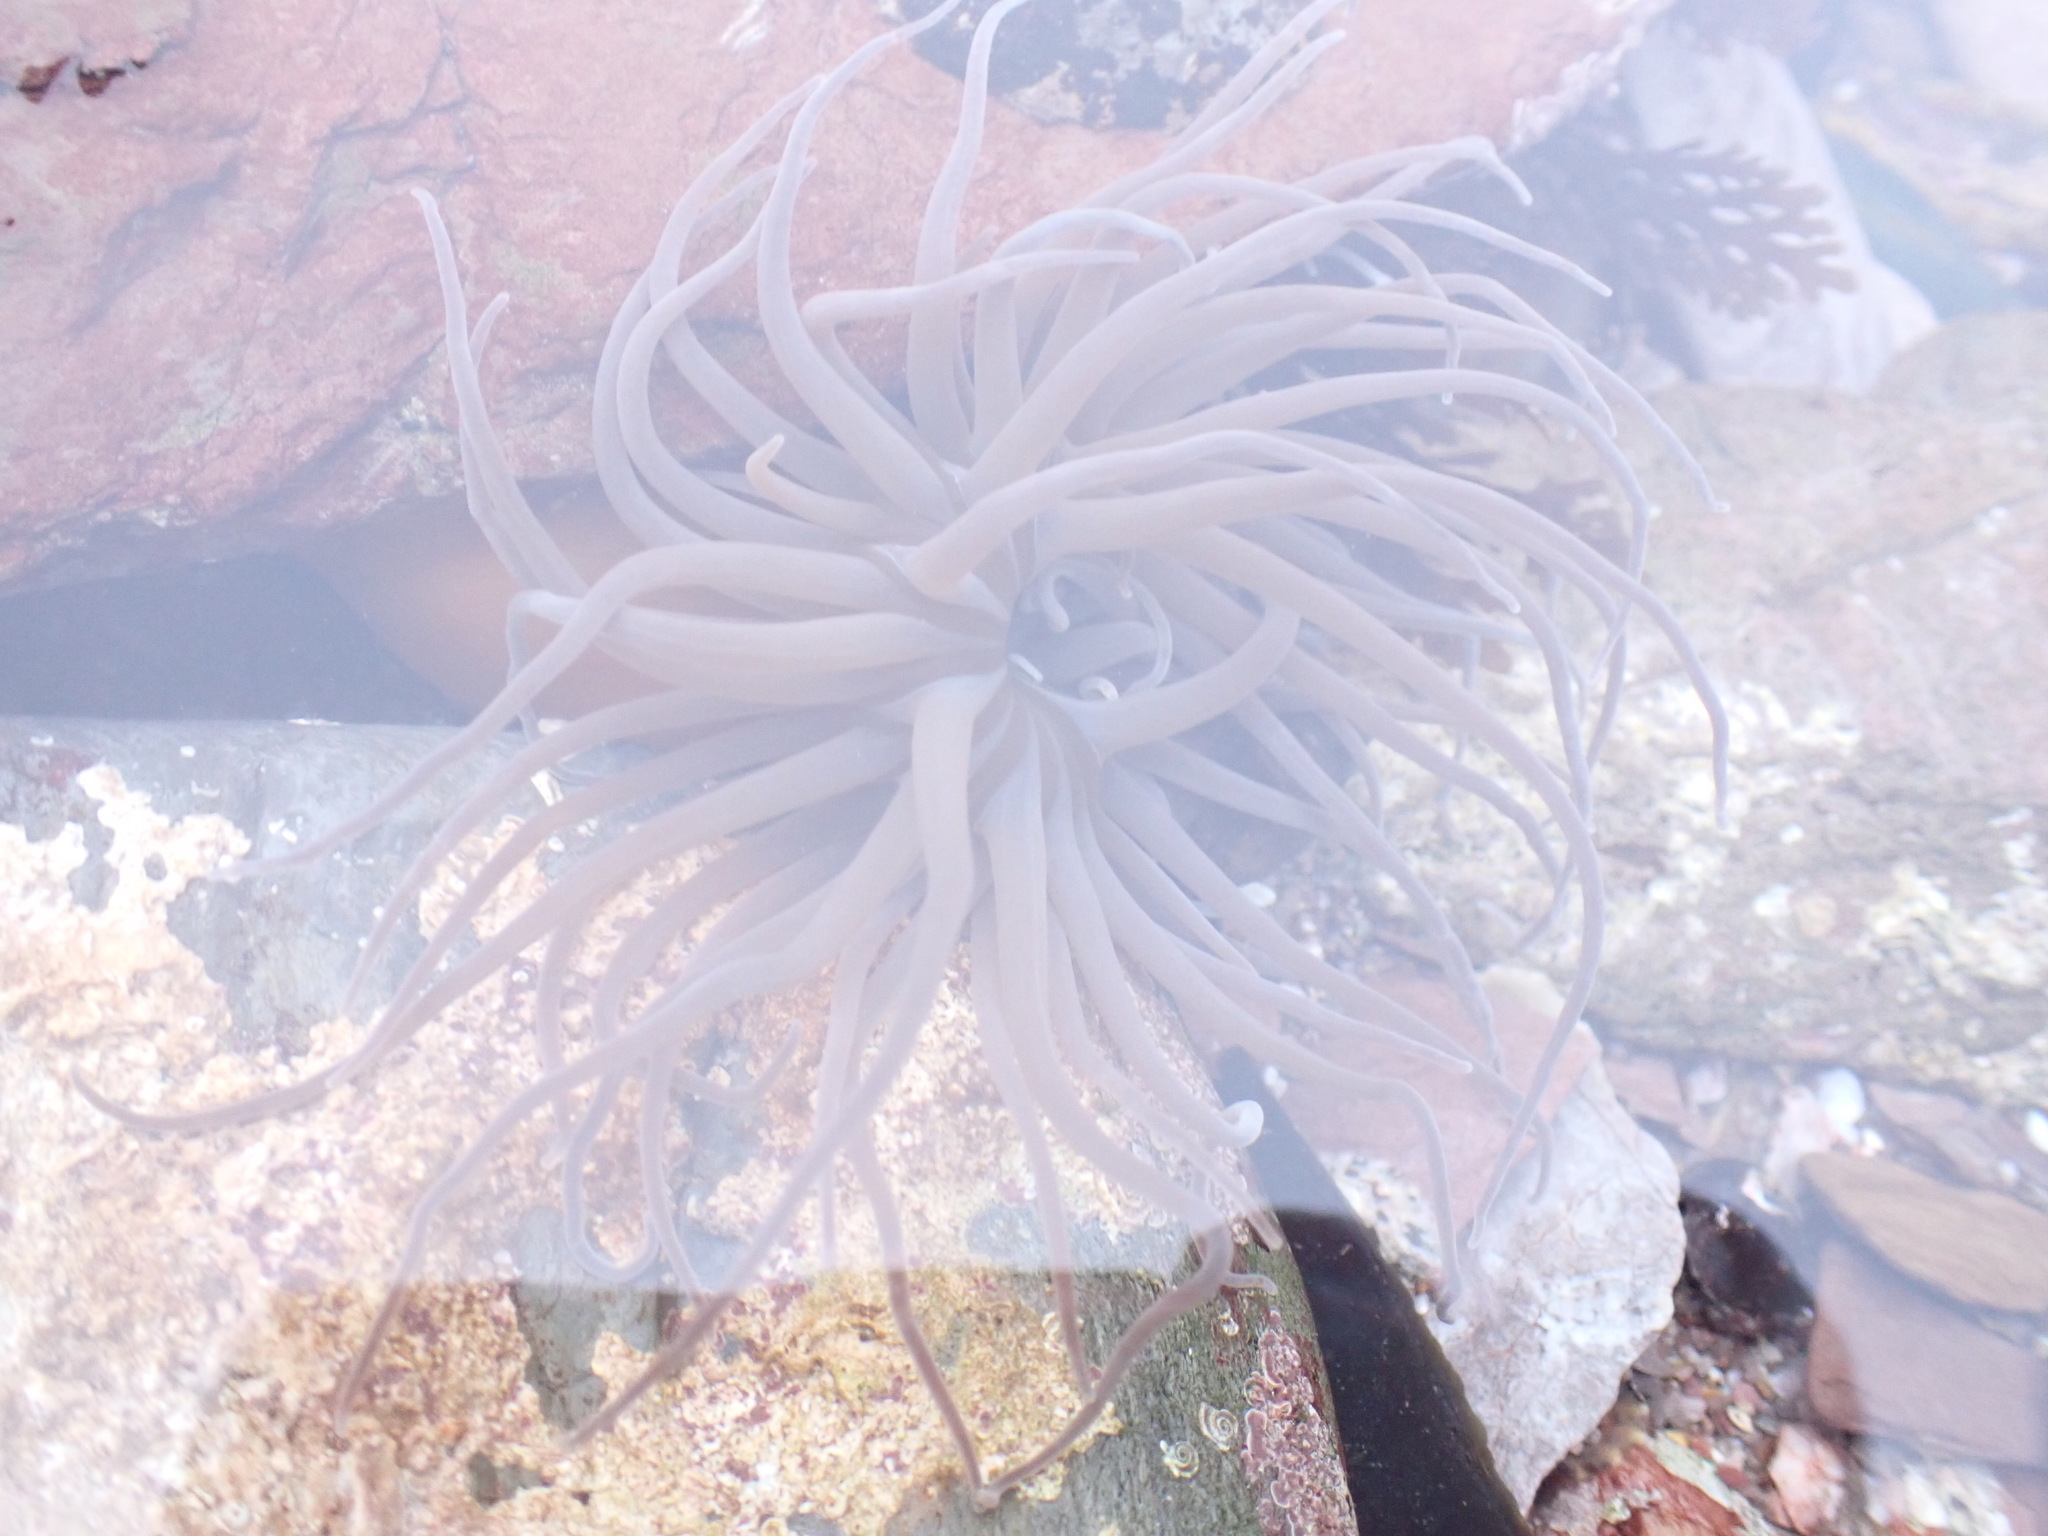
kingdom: Animalia
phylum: Cnidaria
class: Anthozoa
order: Actiniaria
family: Actiniidae
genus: Anemonia
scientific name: Anemonia viridis
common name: Snakelocks anemone
